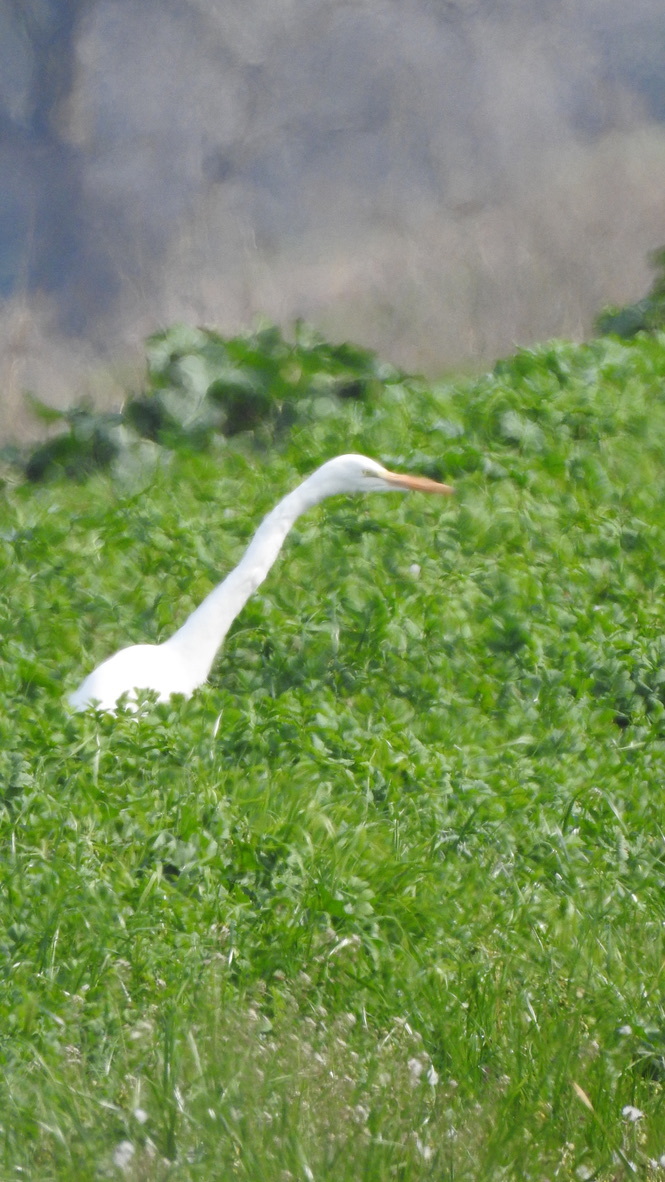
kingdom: Animalia
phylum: Chordata
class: Aves
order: Pelecaniformes
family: Ardeidae
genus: Ardea
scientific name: Ardea alba
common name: Great egret
